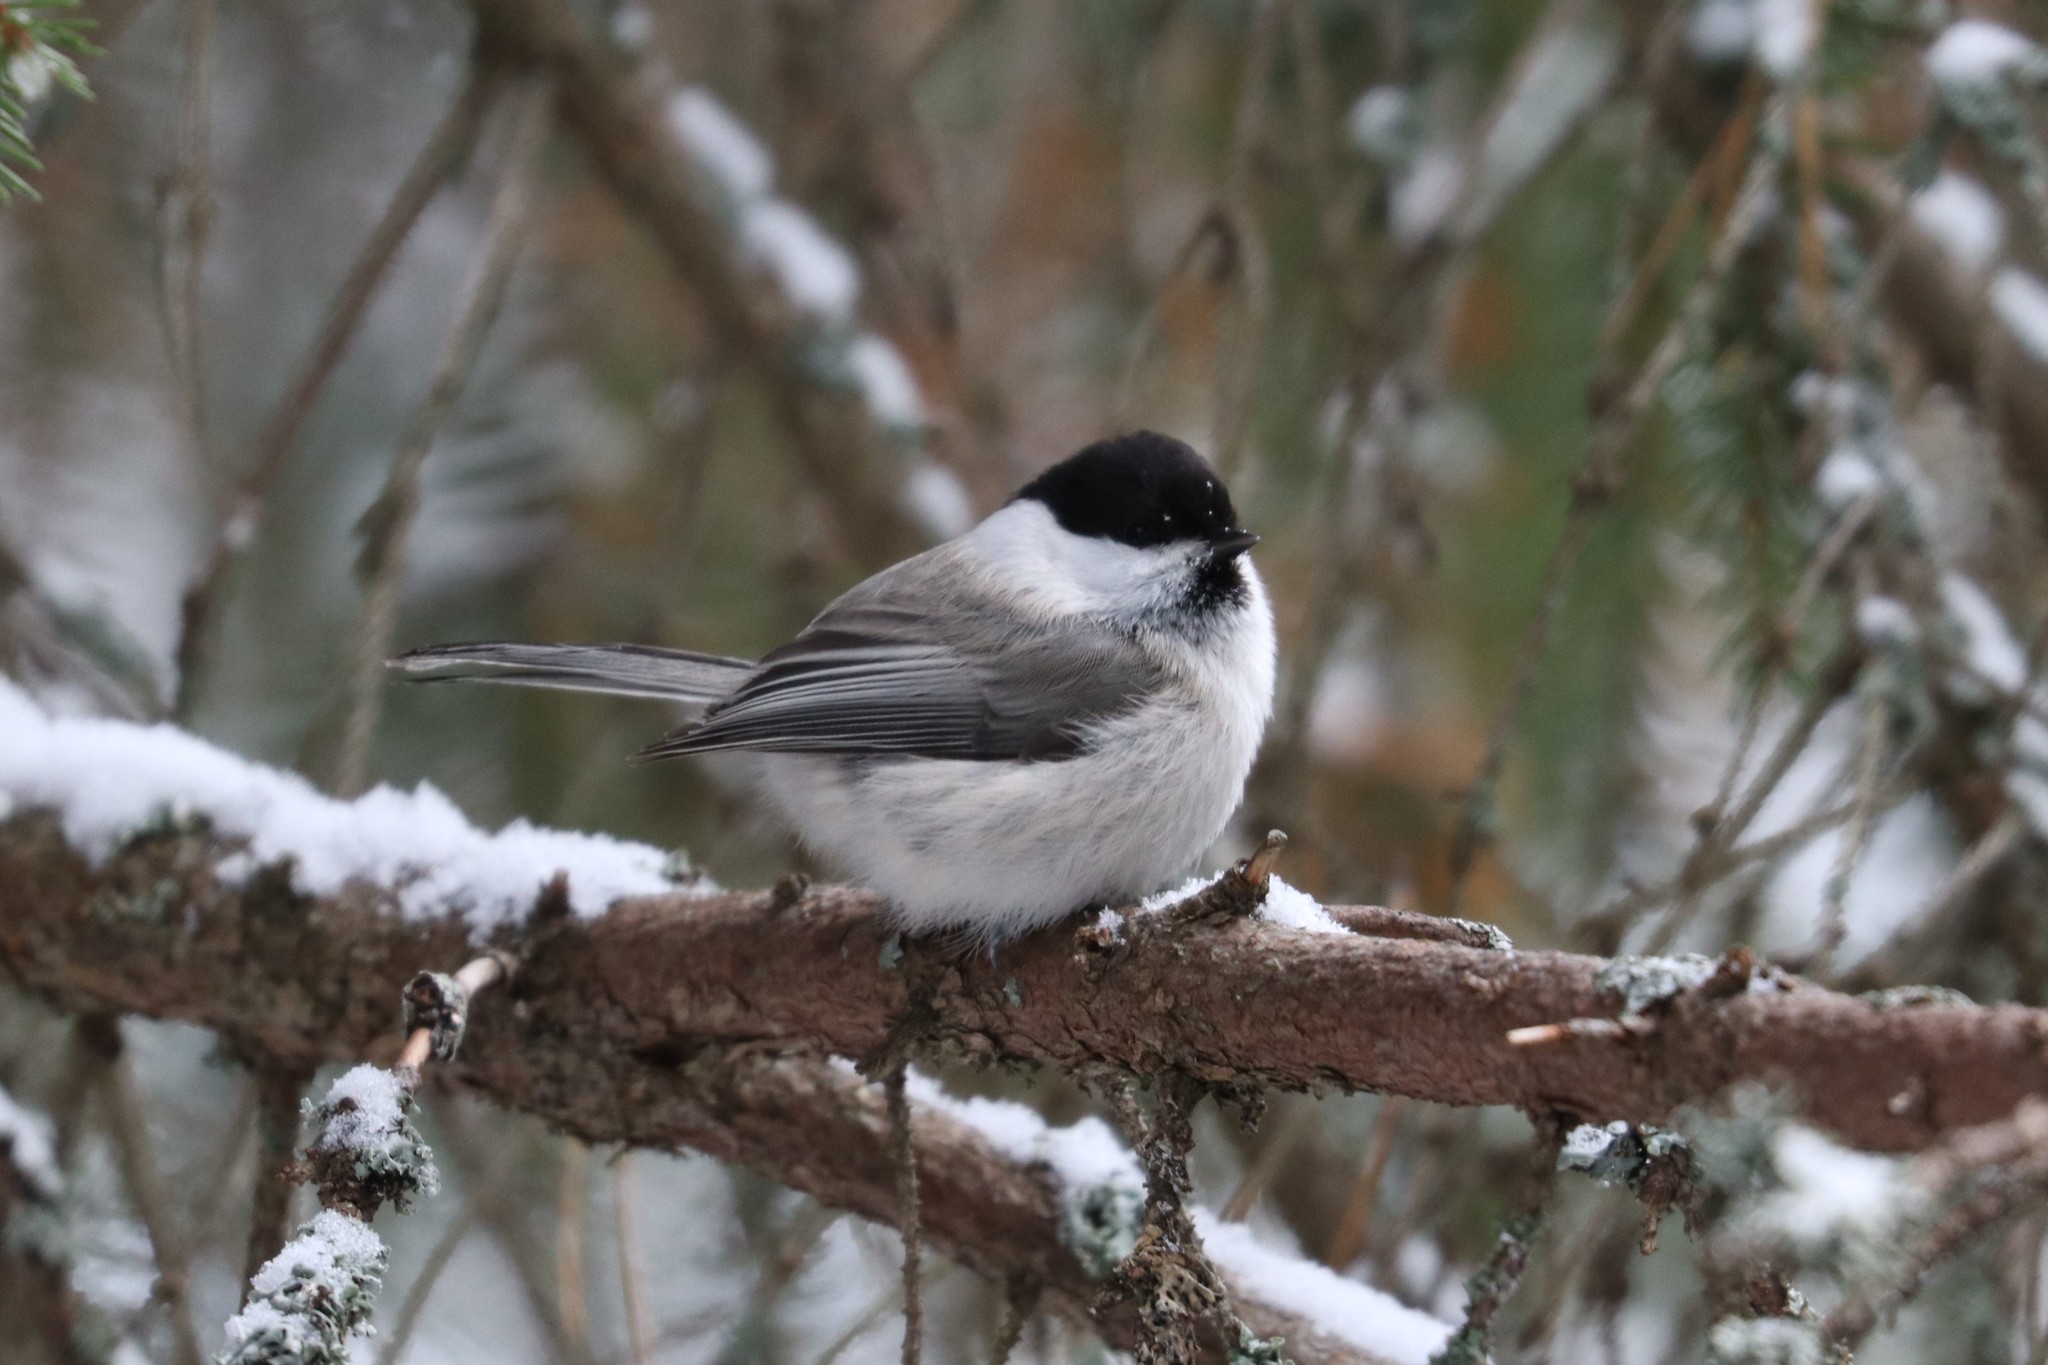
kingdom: Animalia
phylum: Chordata
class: Aves
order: Passeriformes
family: Paridae
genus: Poecile
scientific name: Poecile montanus
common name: Willow tit
